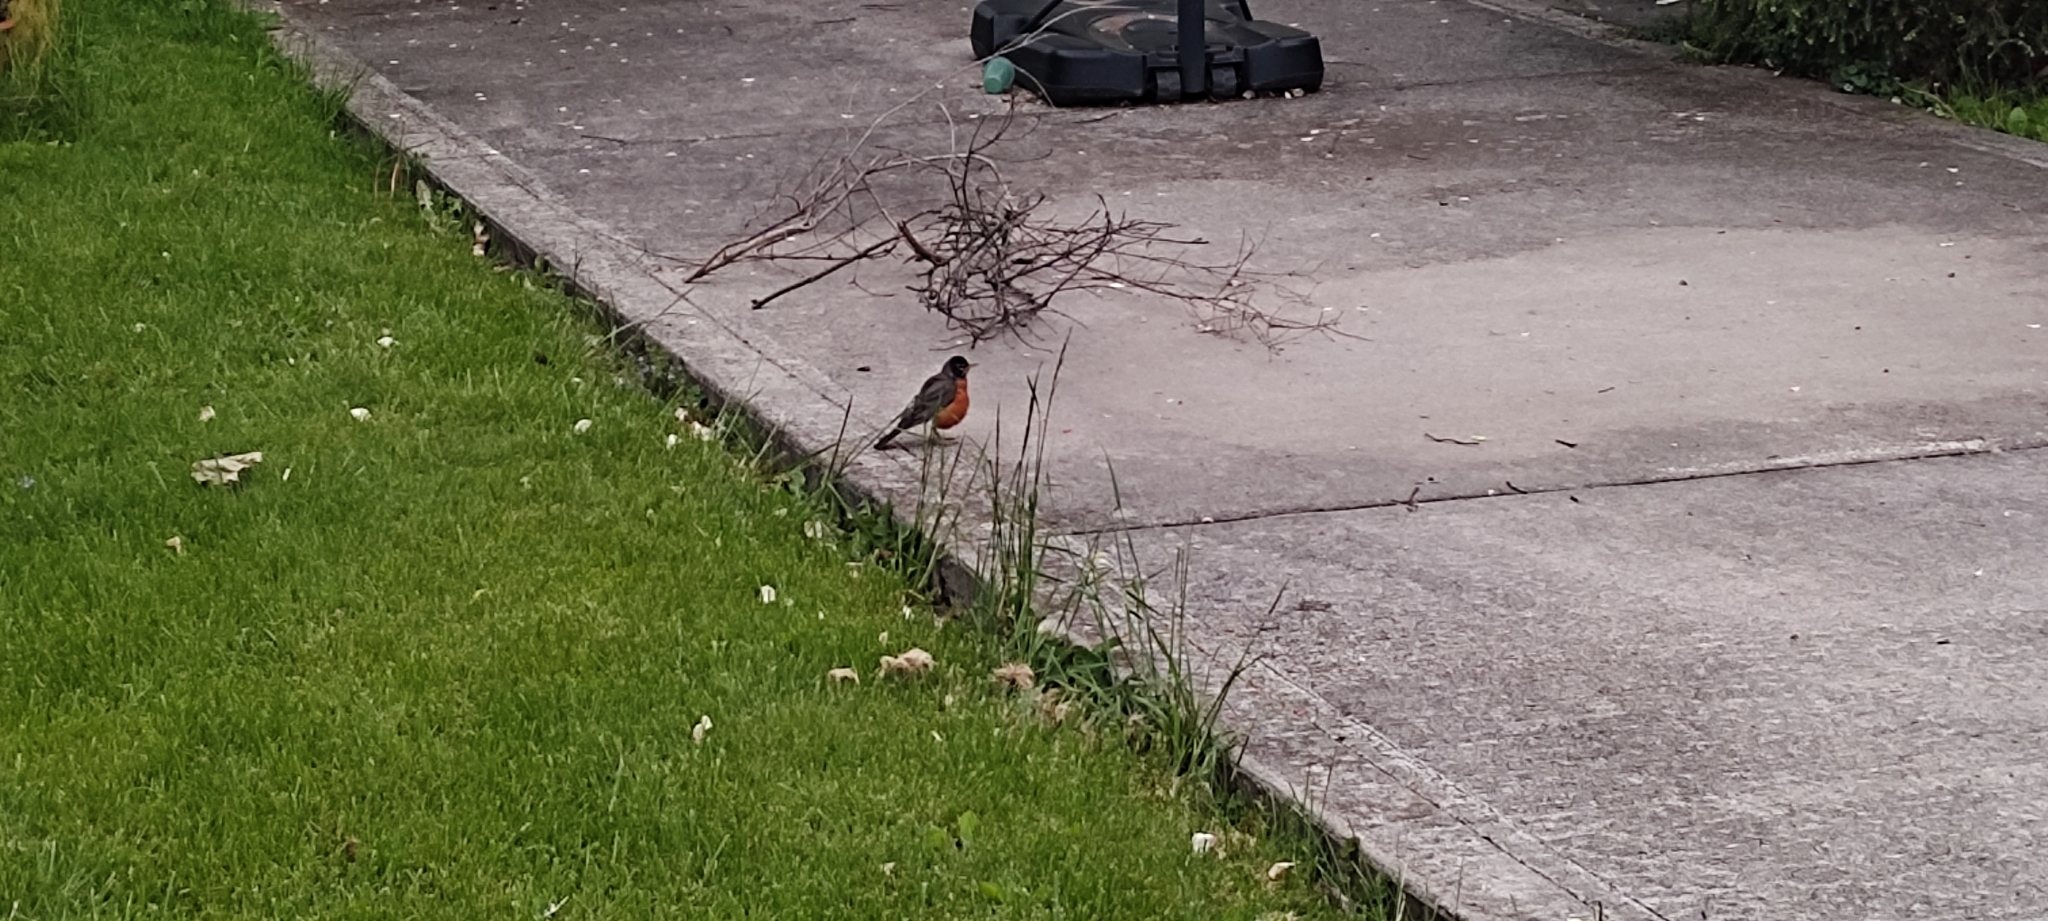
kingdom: Animalia
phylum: Chordata
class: Aves
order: Passeriformes
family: Turdidae
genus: Turdus
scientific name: Turdus migratorius
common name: American robin
